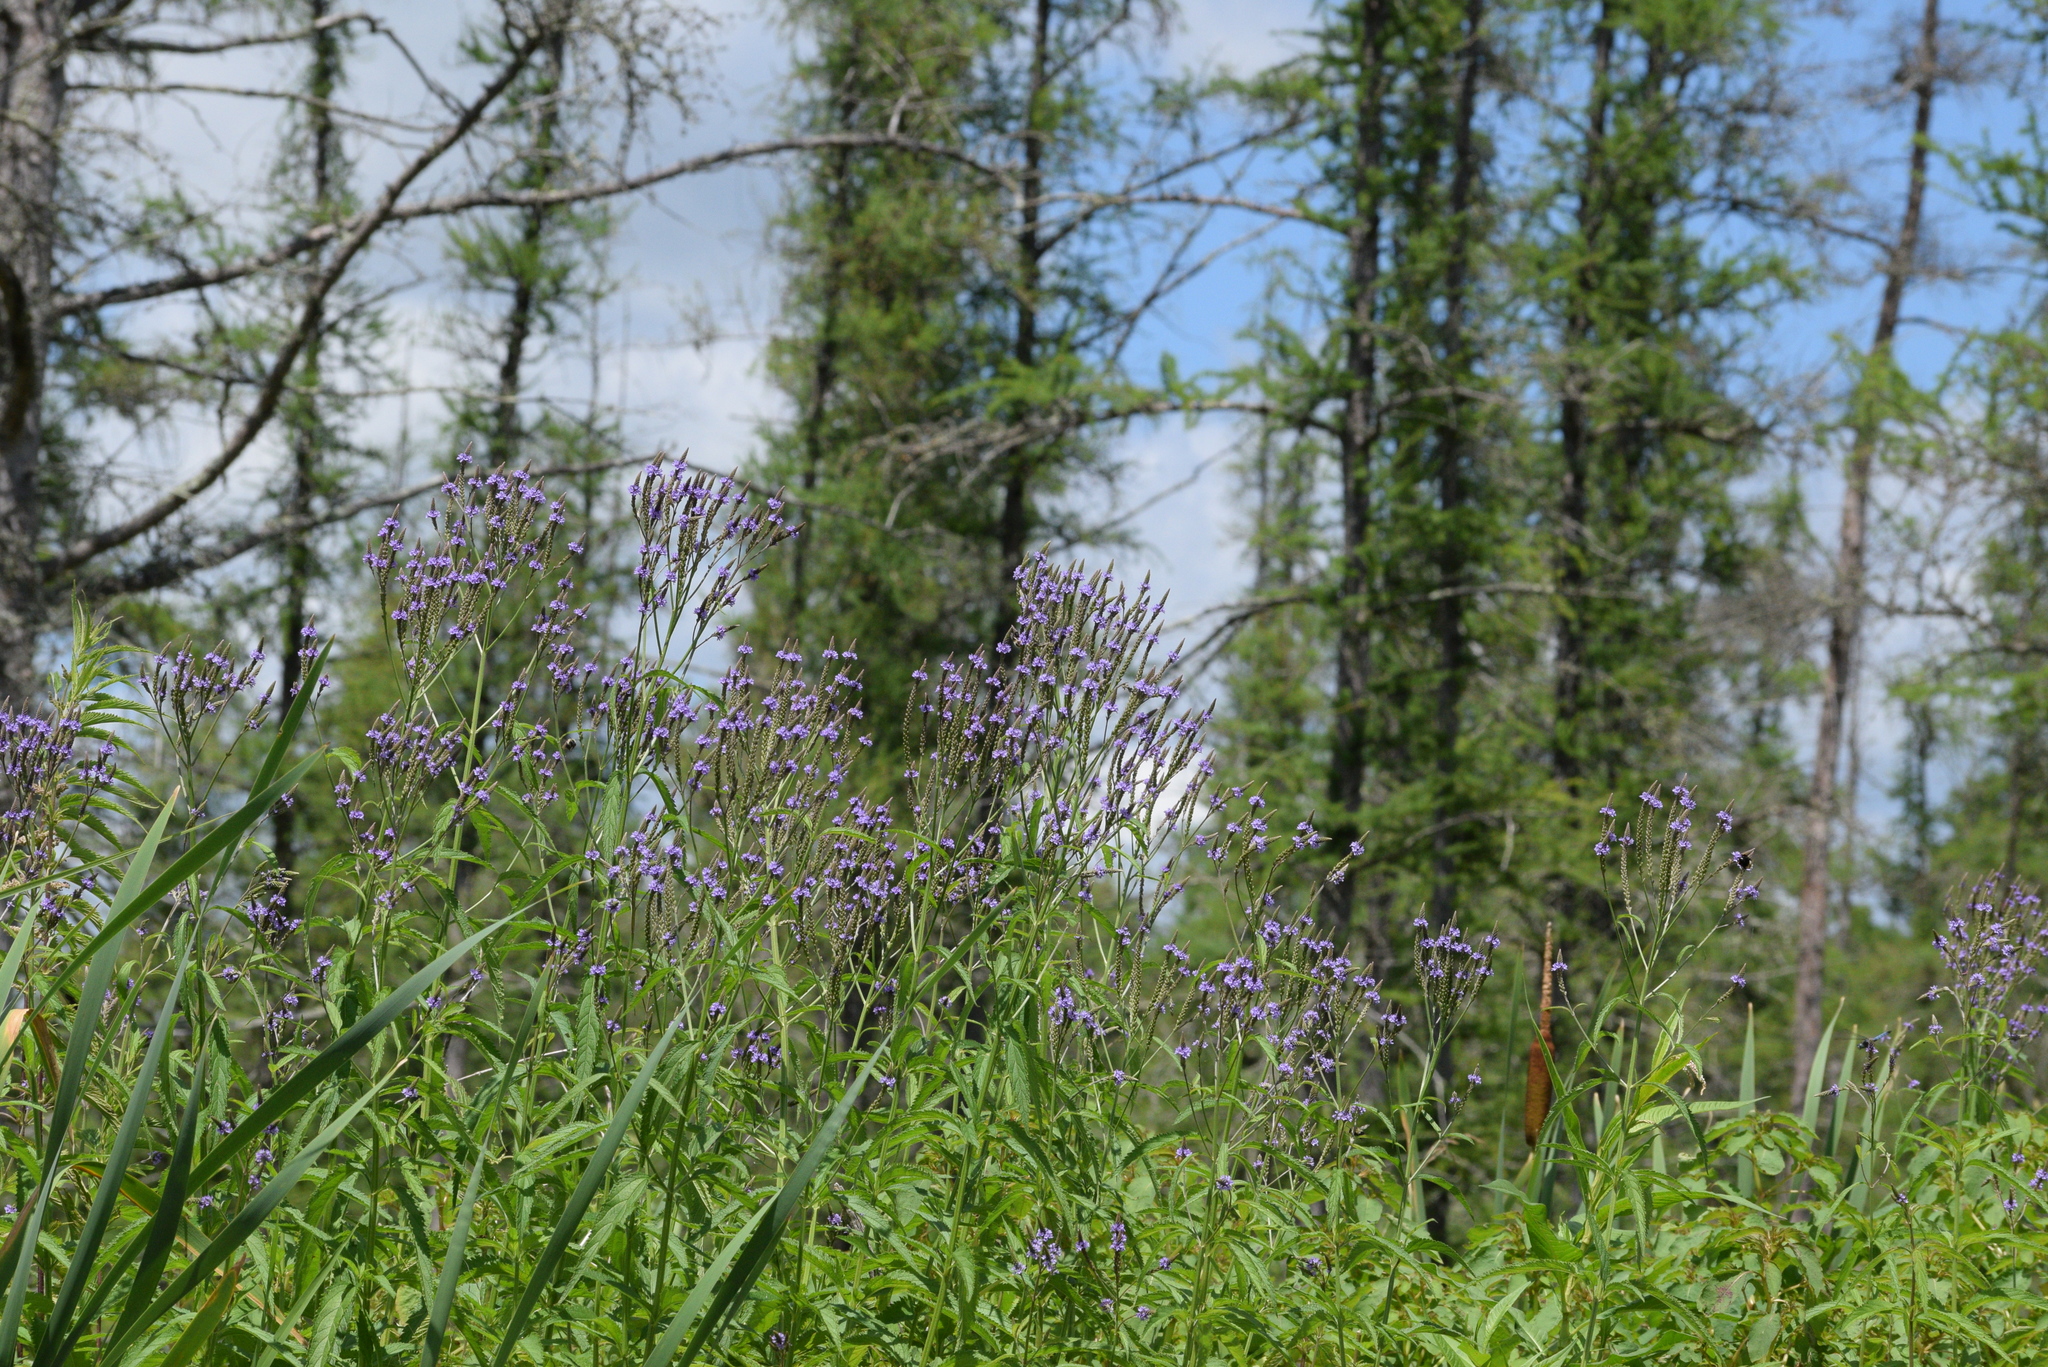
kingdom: Plantae
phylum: Tracheophyta
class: Magnoliopsida
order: Lamiales
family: Verbenaceae
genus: Verbena
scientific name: Verbena hastata
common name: American blue vervain
